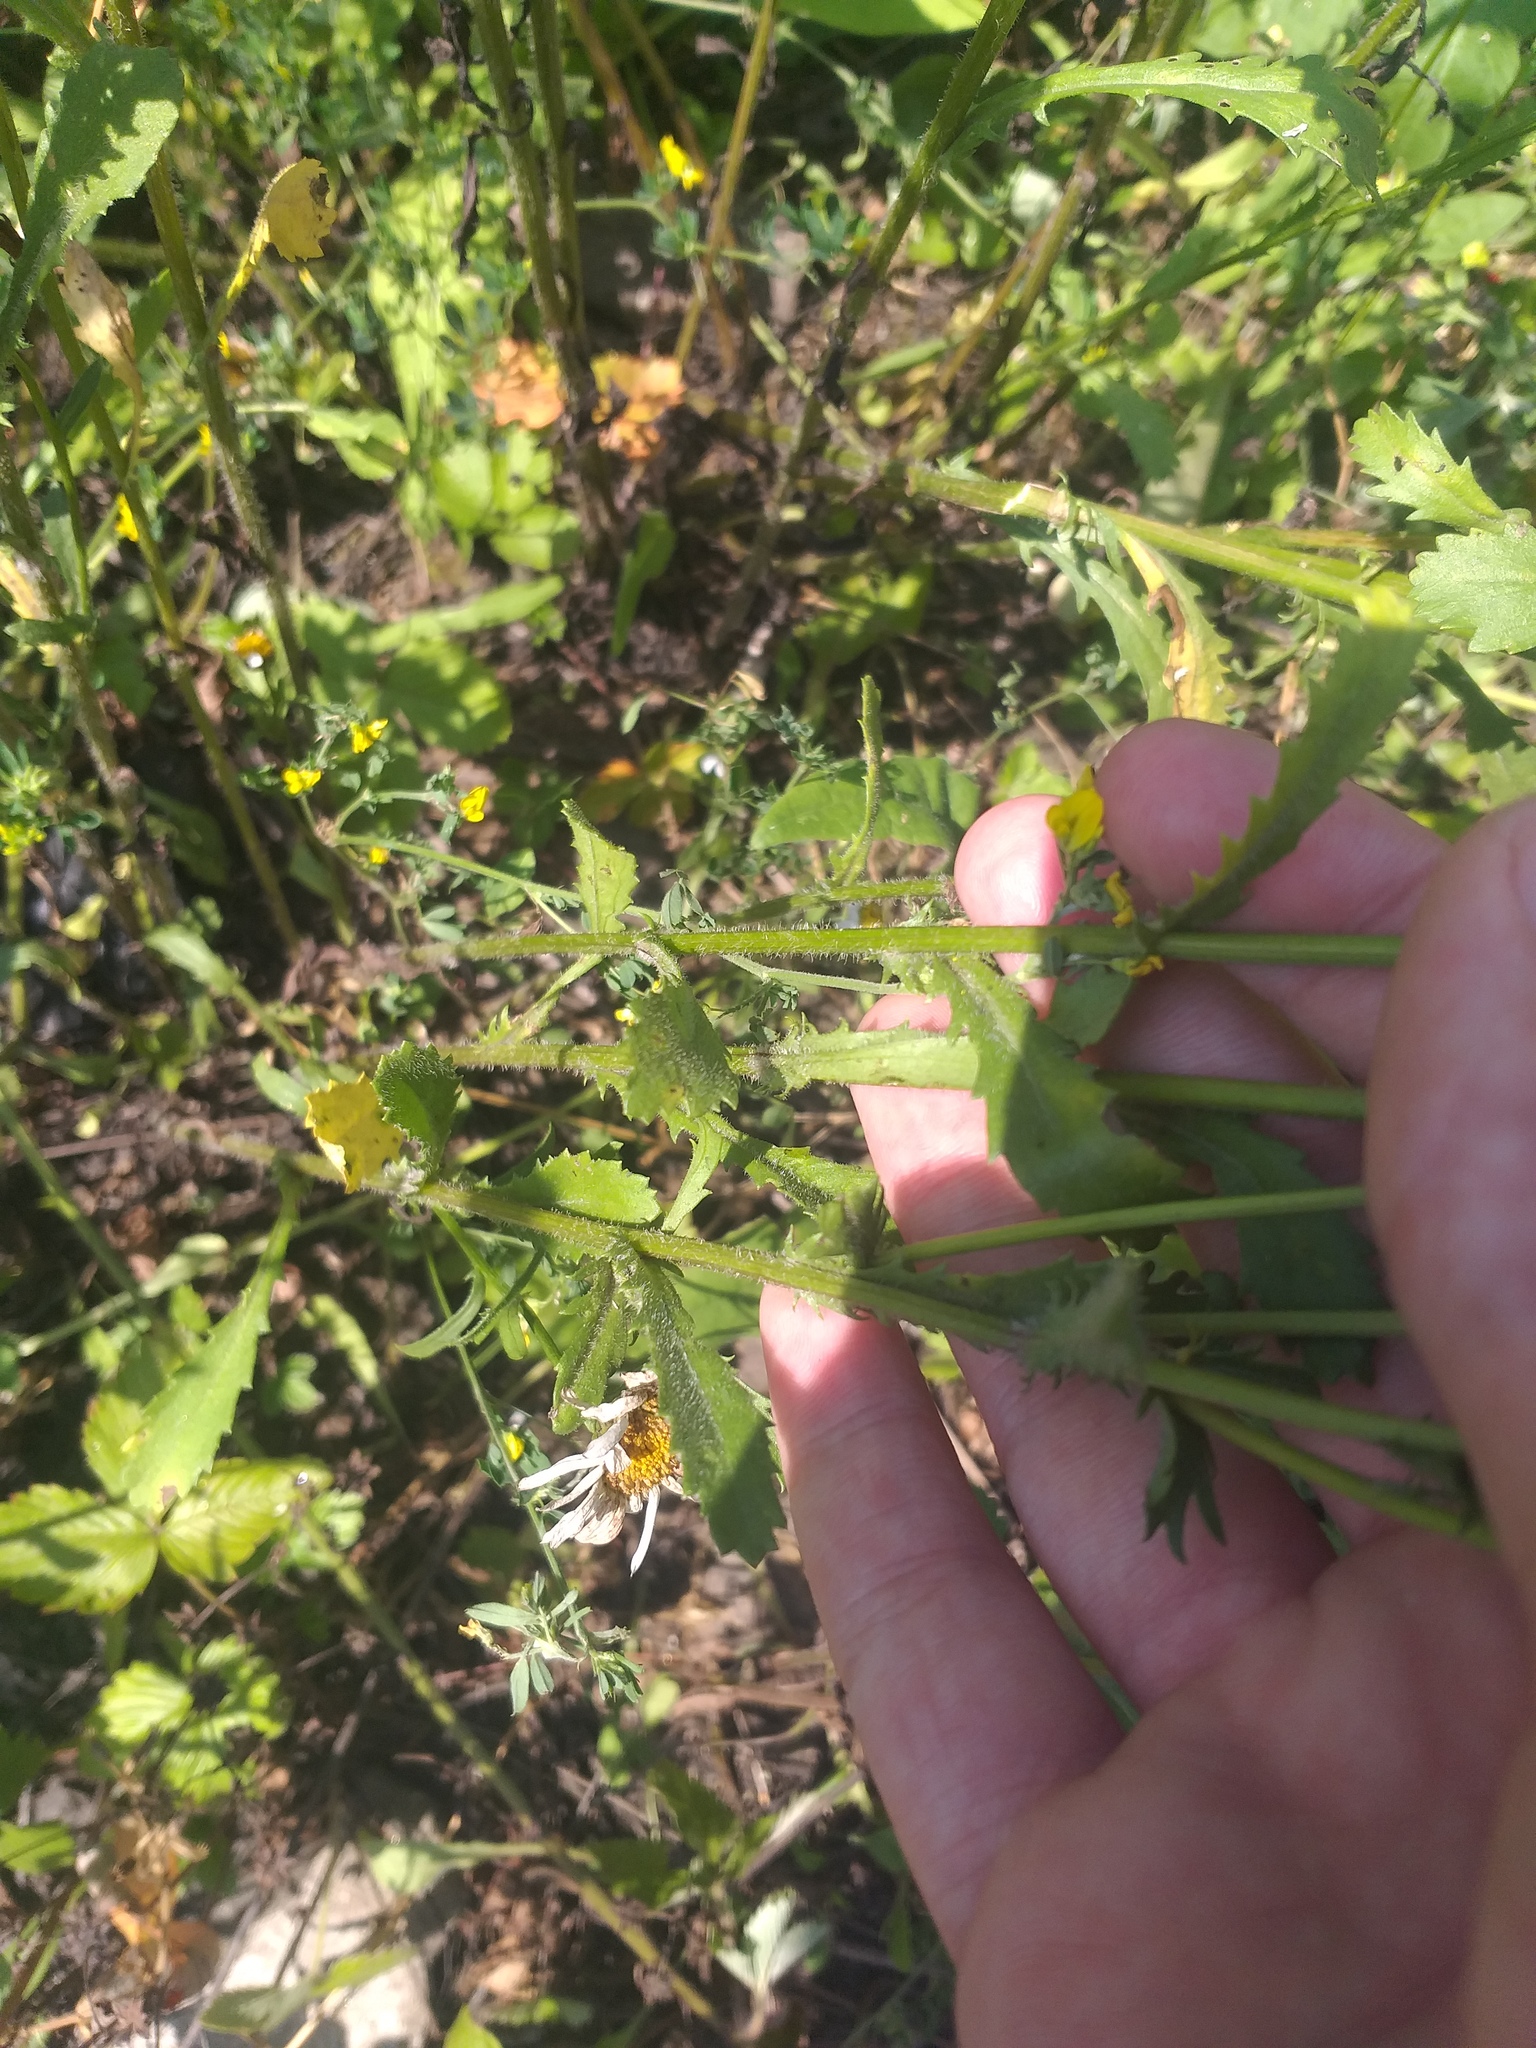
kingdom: Plantae
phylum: Tracheophyta
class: Magnoliopsida
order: Asterales
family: Asteraceae
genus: Leucanthemum
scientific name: Leucanthemum vulgare
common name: Oxeye daisy
